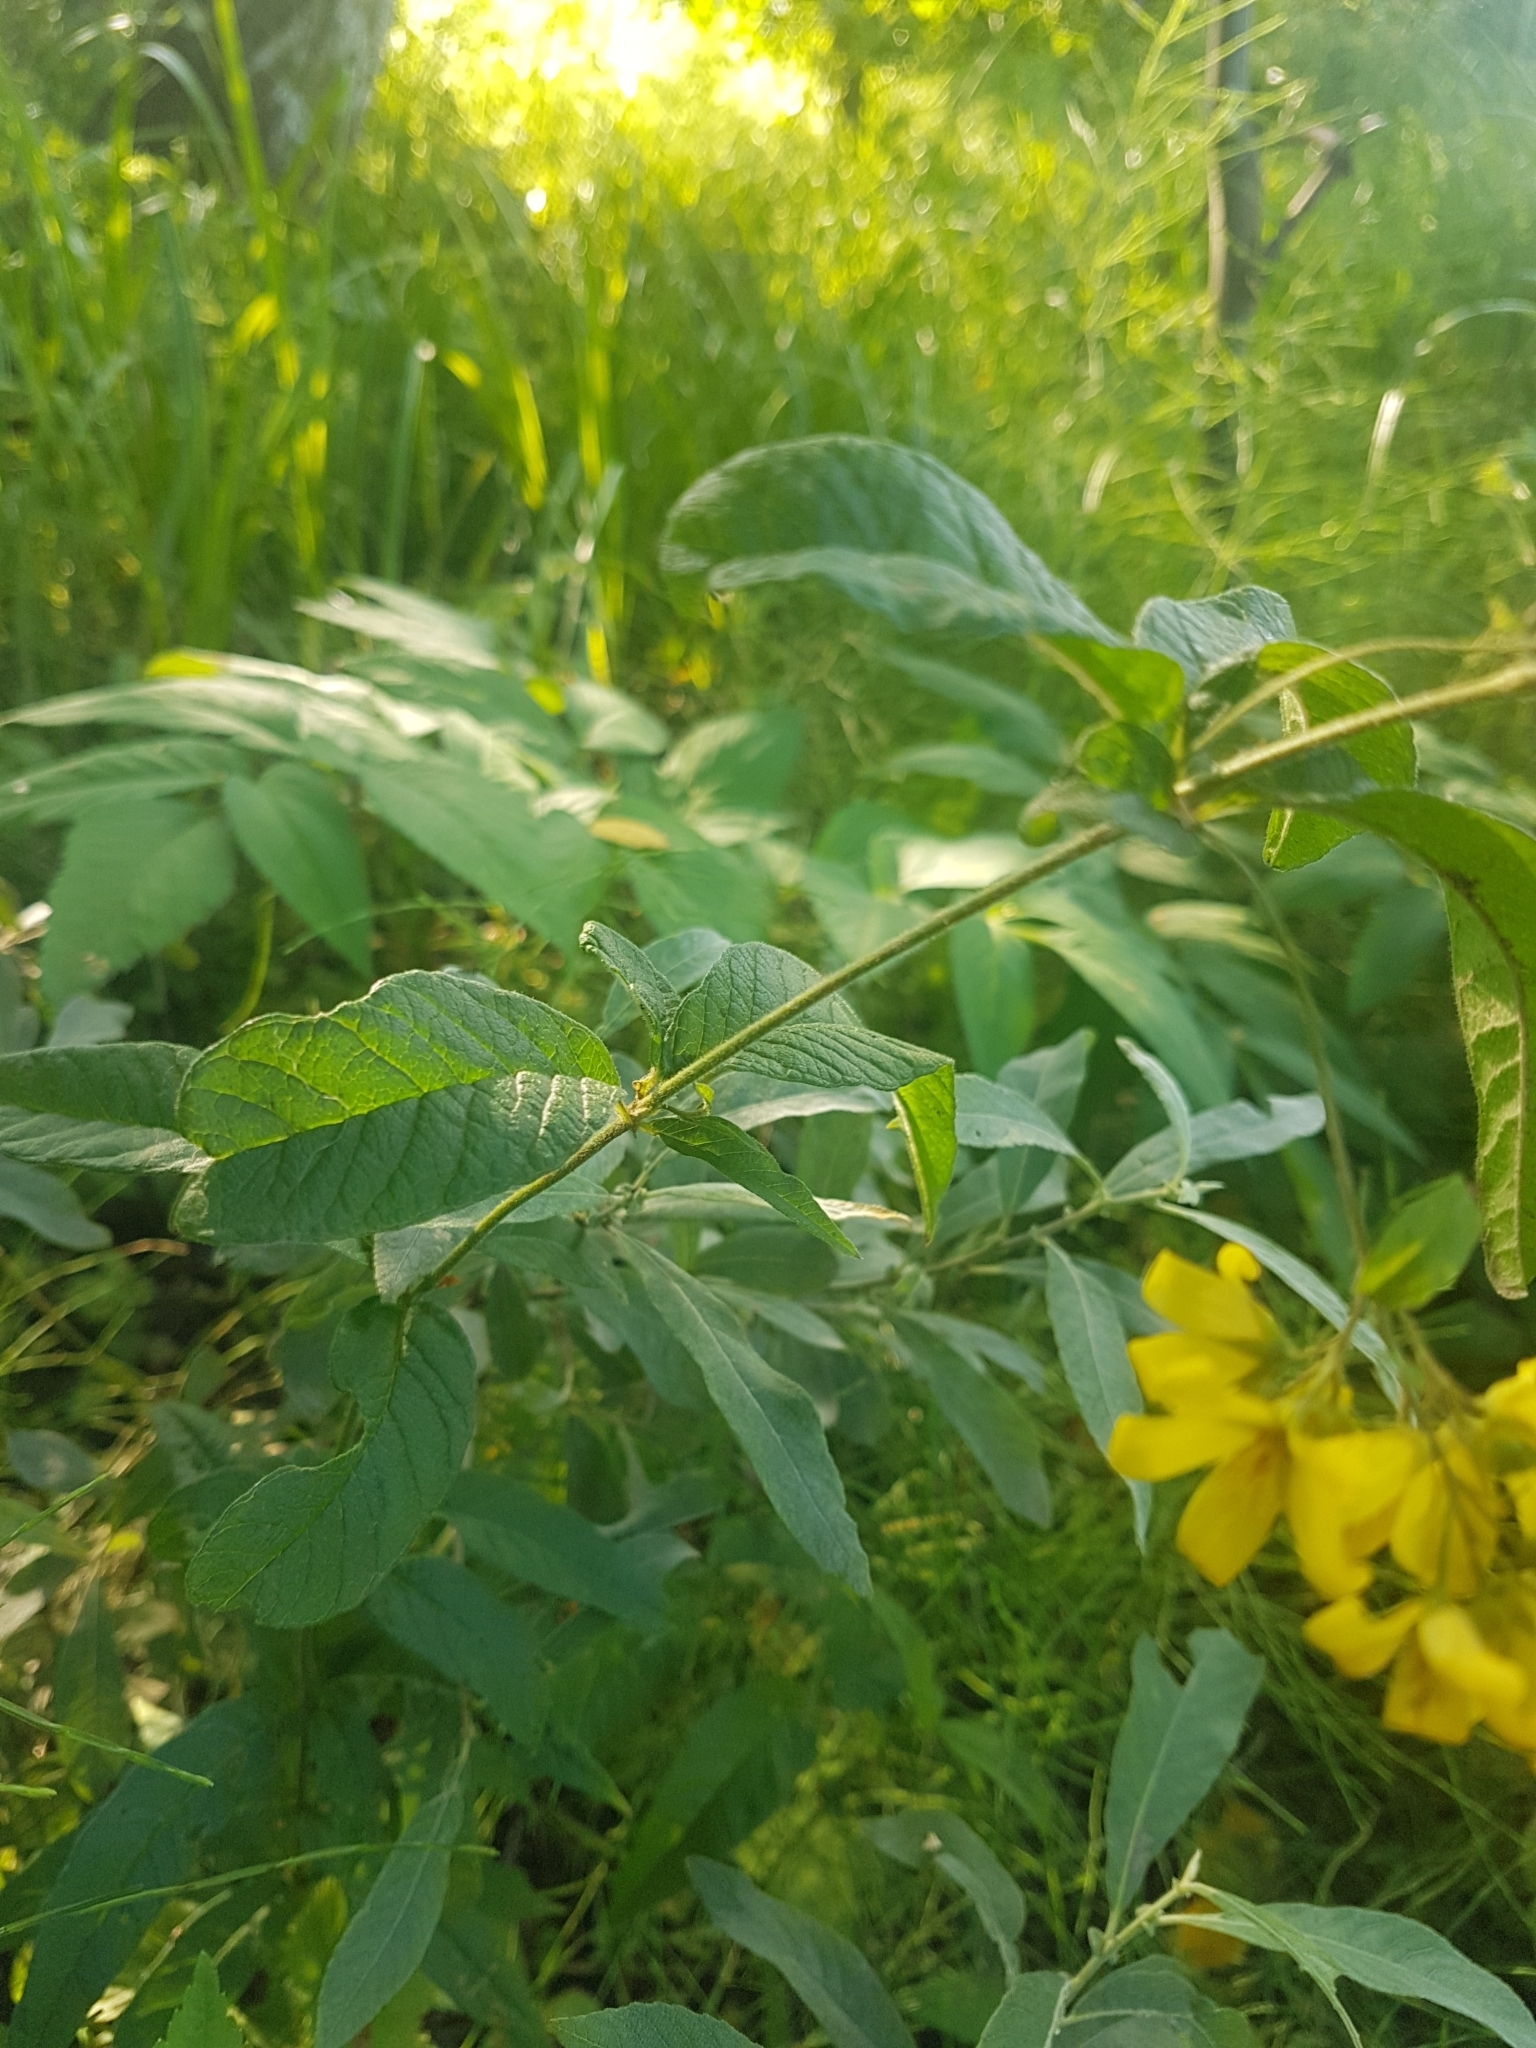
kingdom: Plantae
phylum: Tracheophyta
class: Magnoliopsida
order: Ericales
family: Primulaceae
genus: Lysimachia
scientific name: Lysimachia vulgaris
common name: Yellow loosestrife
